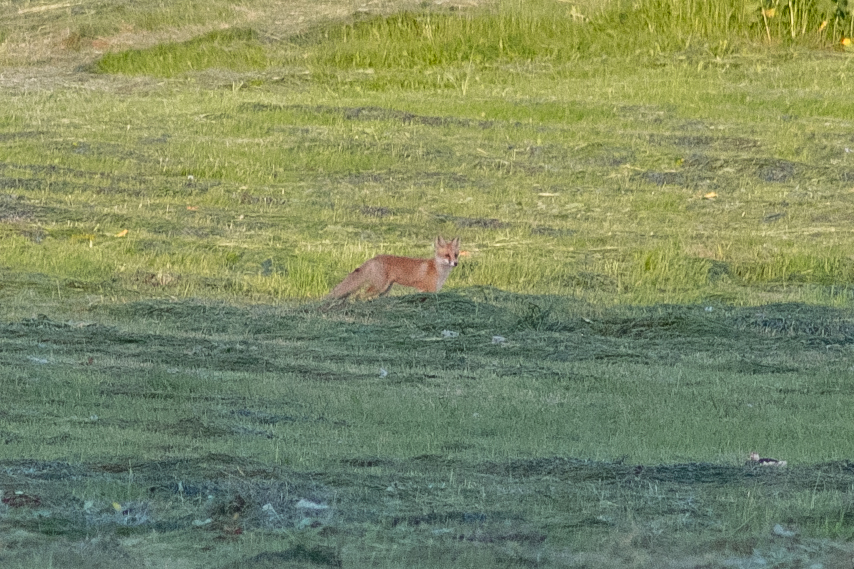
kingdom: Animalia
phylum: Chordata
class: Mammalia
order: Carnivora
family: Canidae
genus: Vulpes
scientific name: Vulpes vulpes
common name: Red fox
